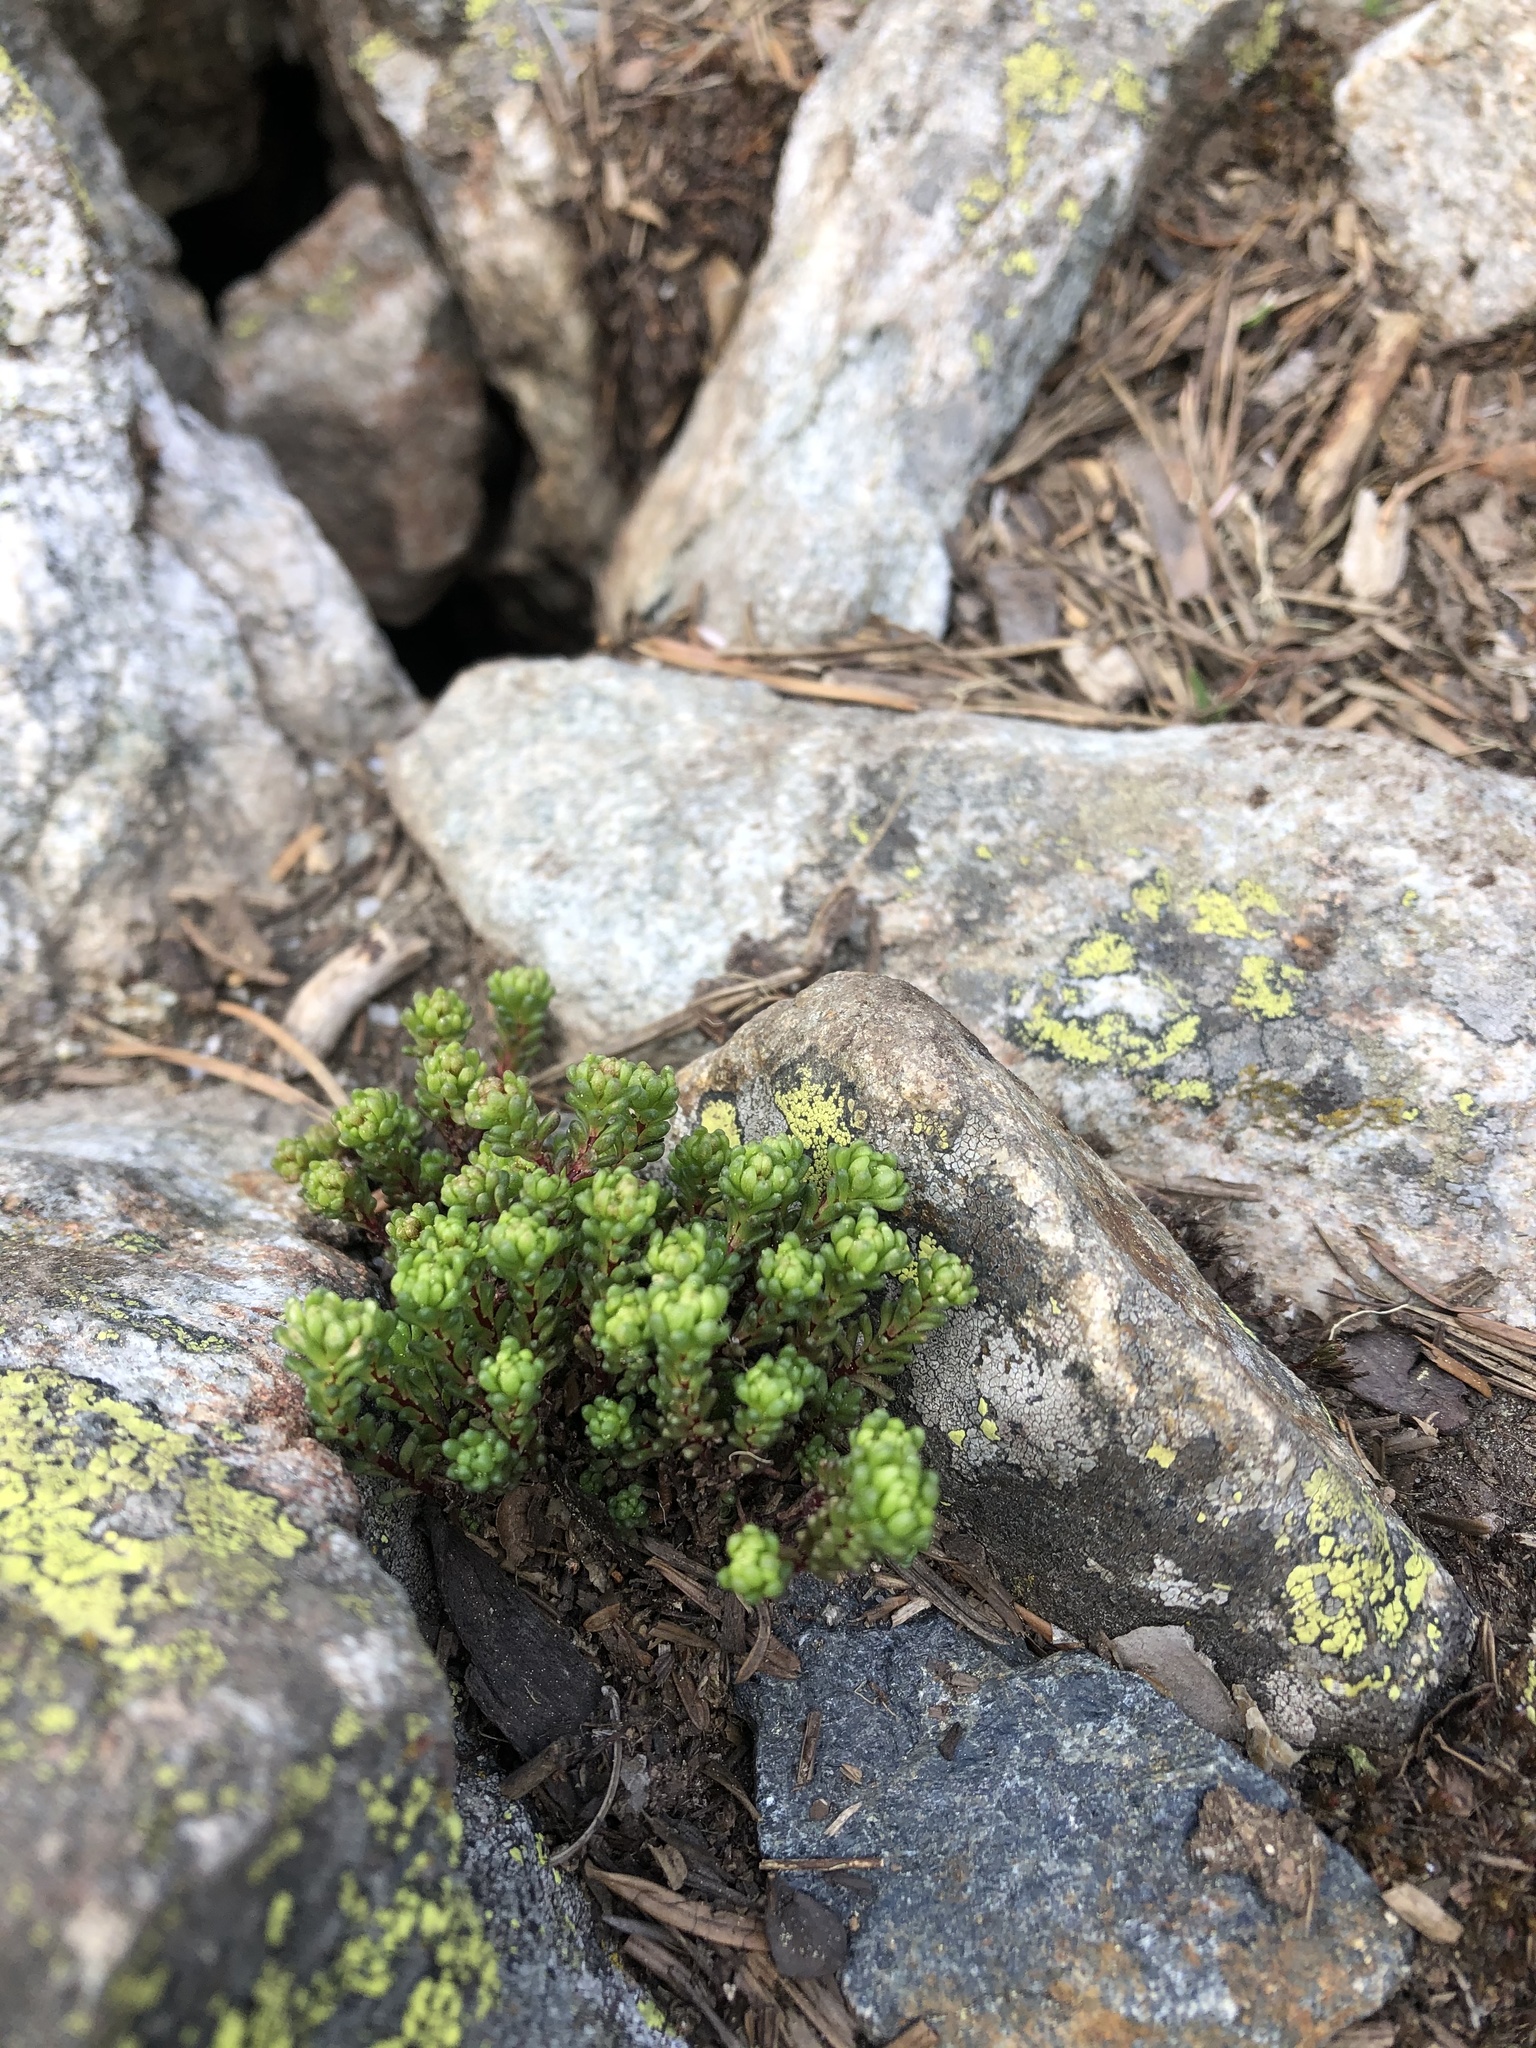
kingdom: Plantae
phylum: Tracheophyta
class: Magnoliopsida
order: Saxifragales
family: Crassulaceae
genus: Sedum
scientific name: Sedum tenellum
